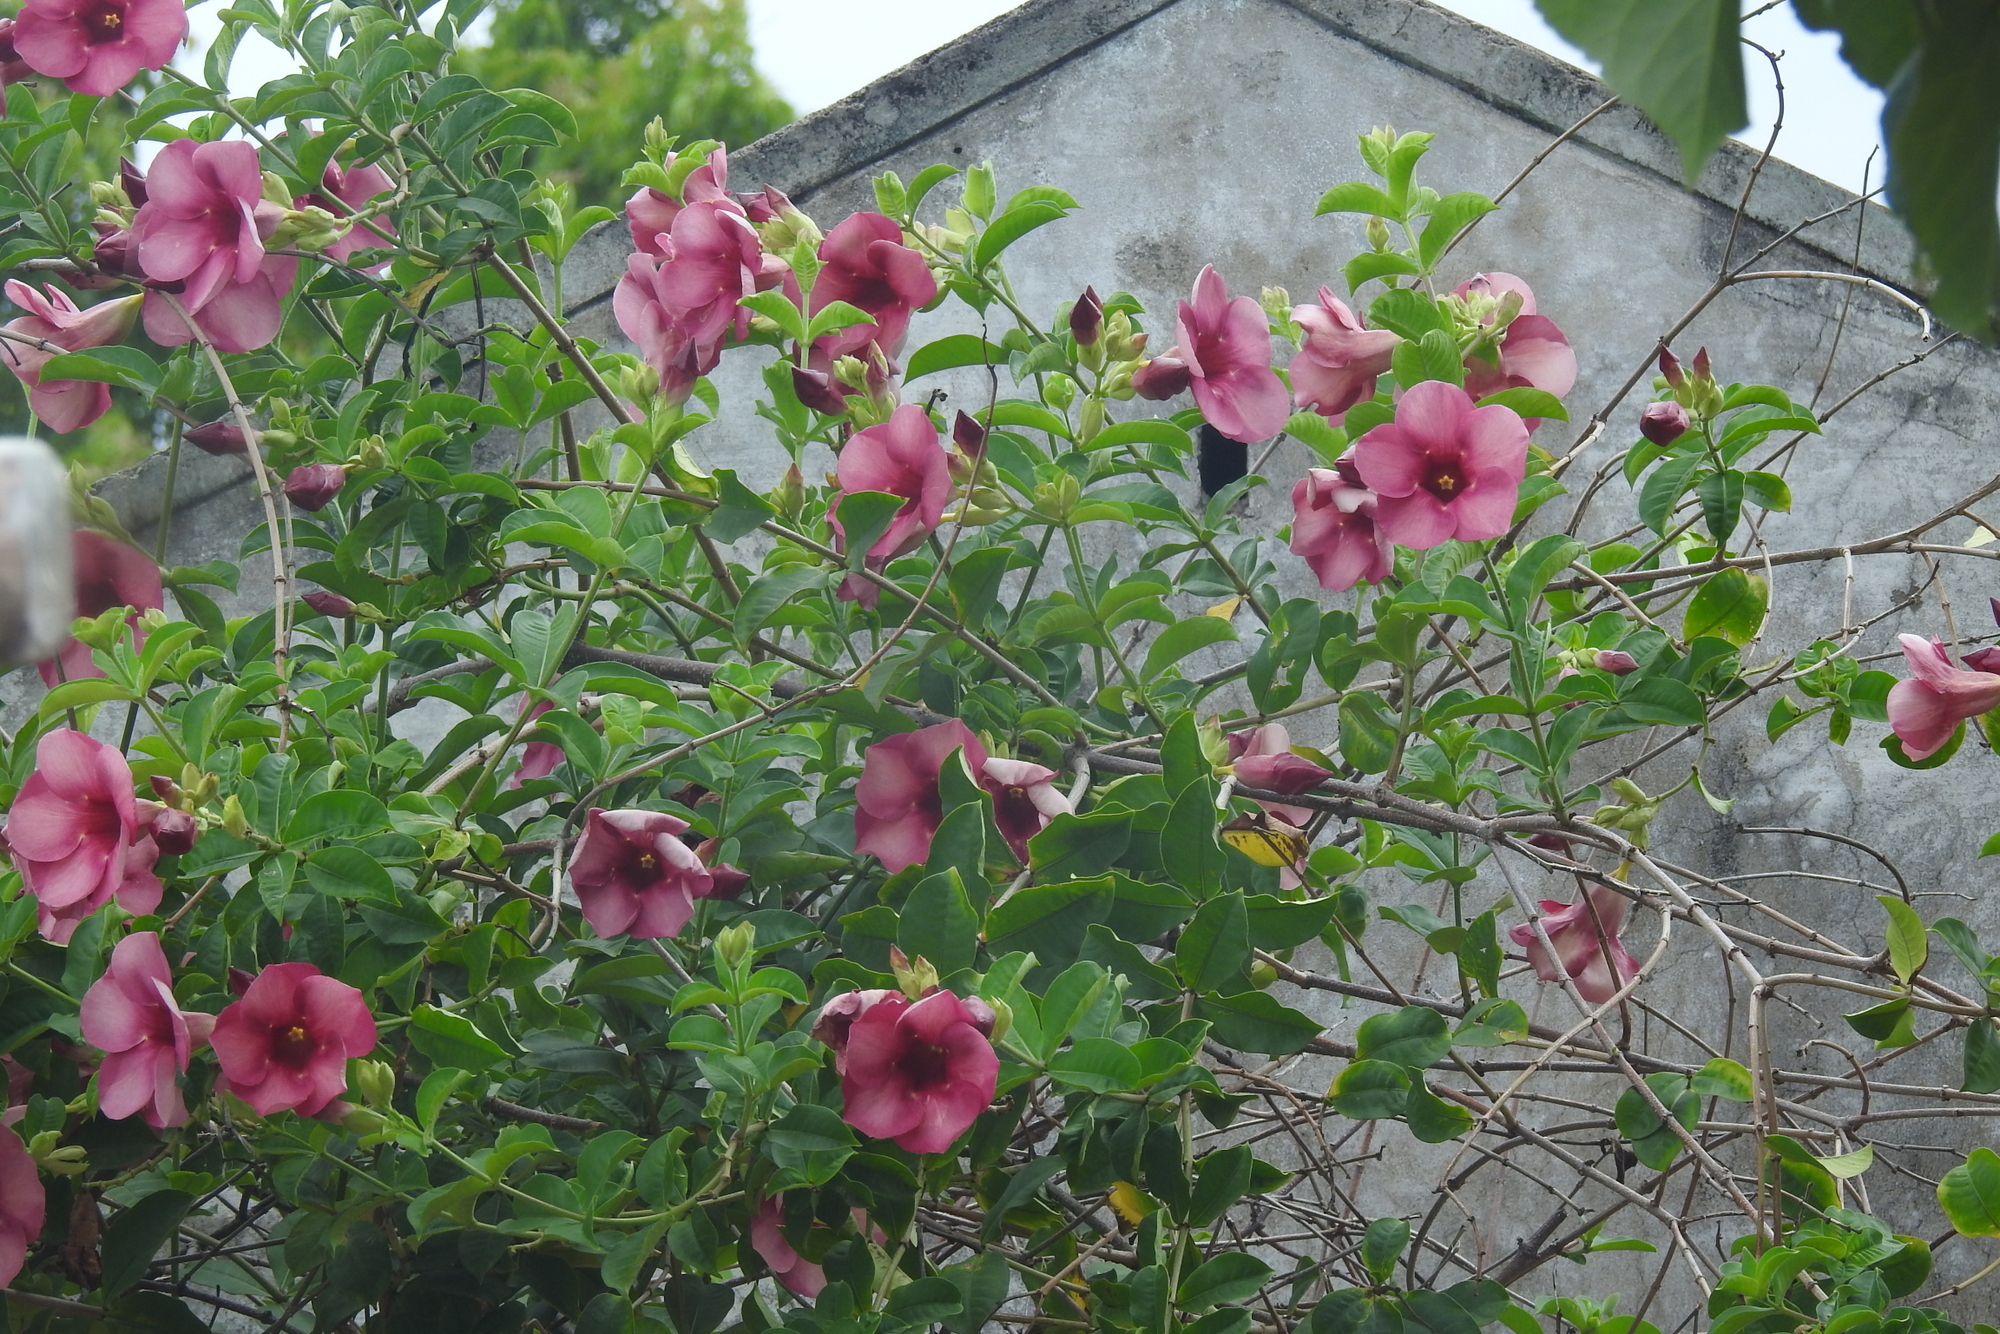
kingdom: Plantae
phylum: Tracheophyta
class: Magnoliopsida
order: Gentianales
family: Apocynaceae
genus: Allamanda
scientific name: Allamanda blanchetii
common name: Purple allamanda
